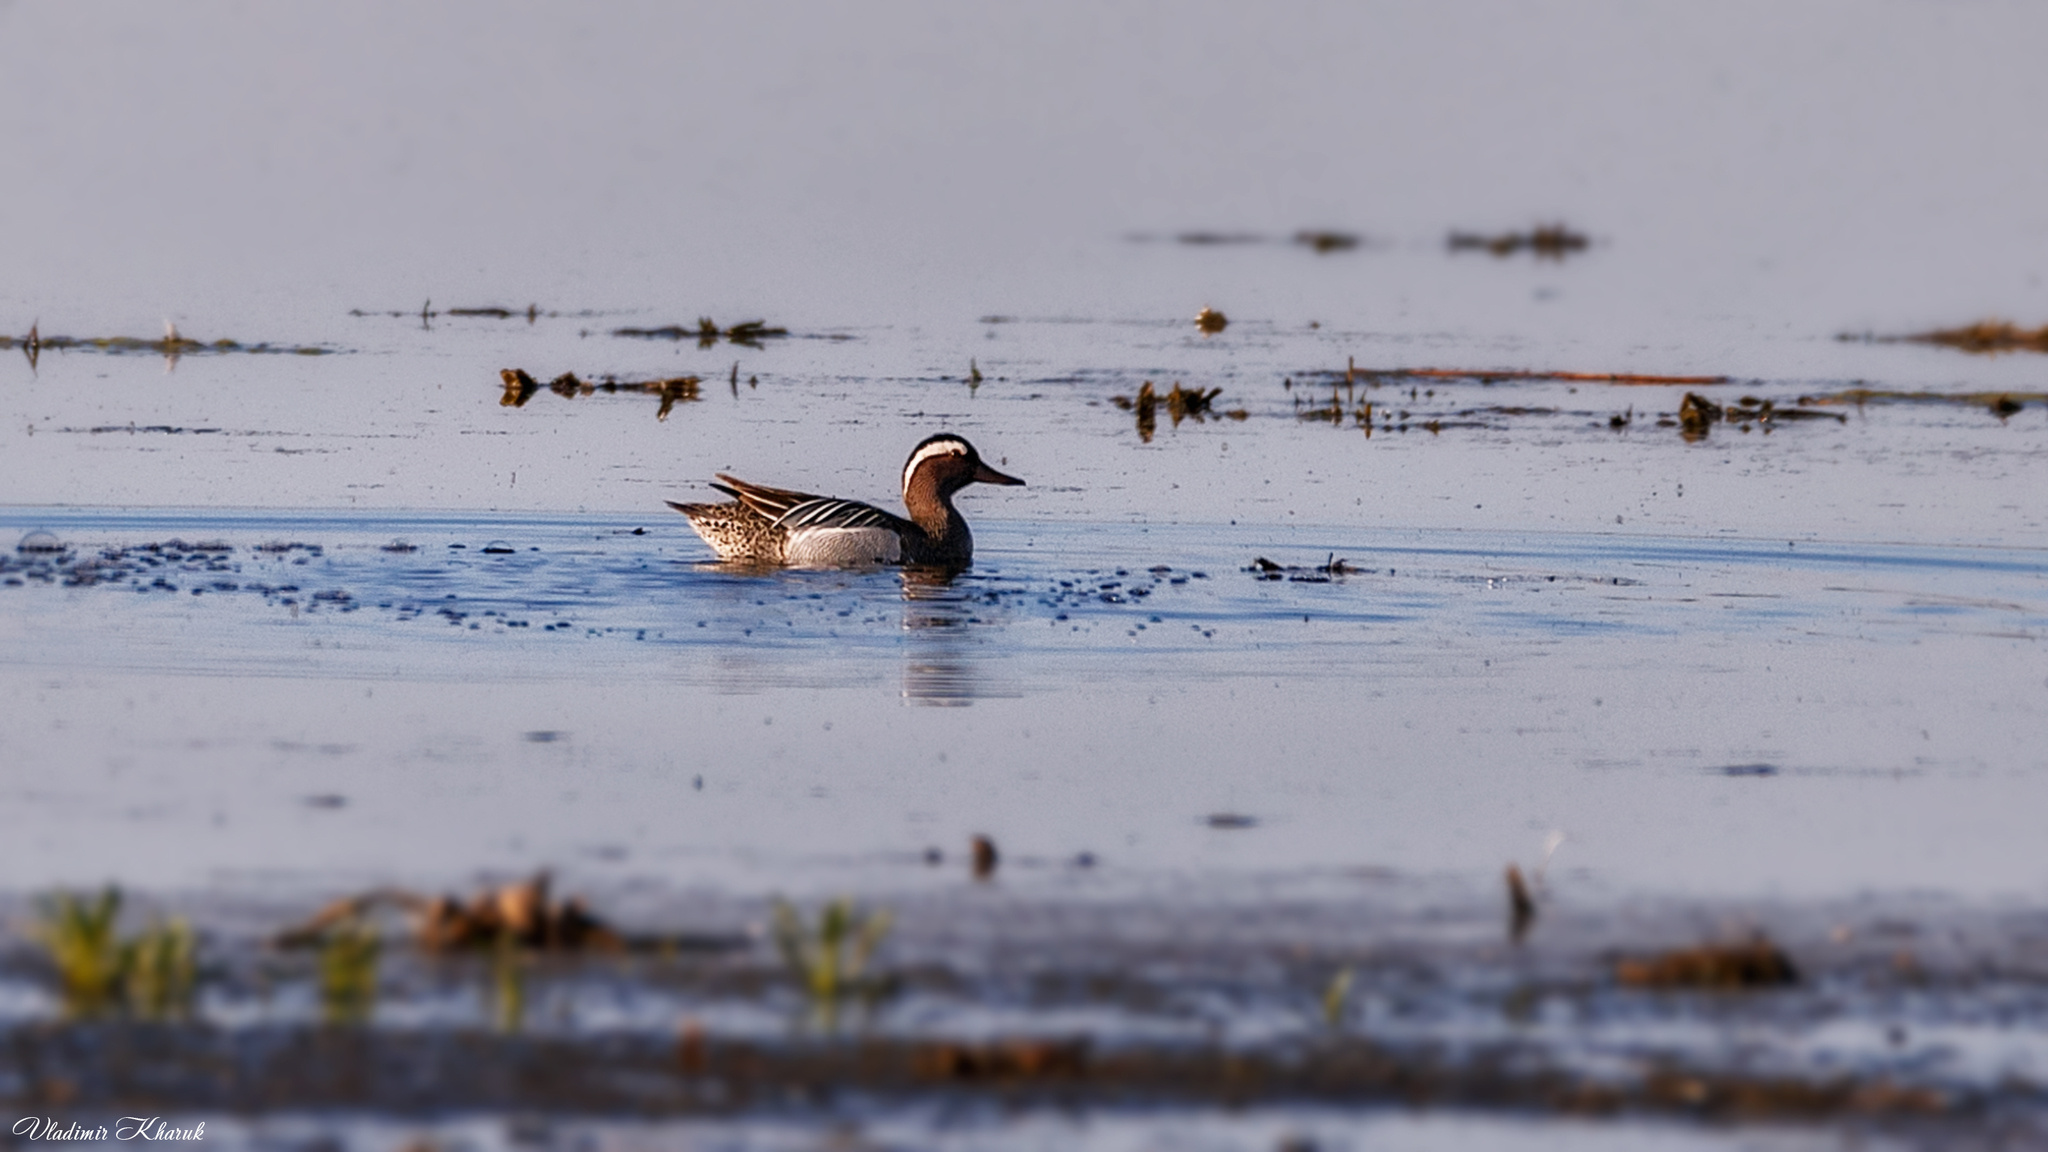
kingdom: Animalia
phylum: Chordata
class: Aves
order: Anseriformes
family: Anatidae
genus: Spatula
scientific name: Spatula querquedula
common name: Garganey
